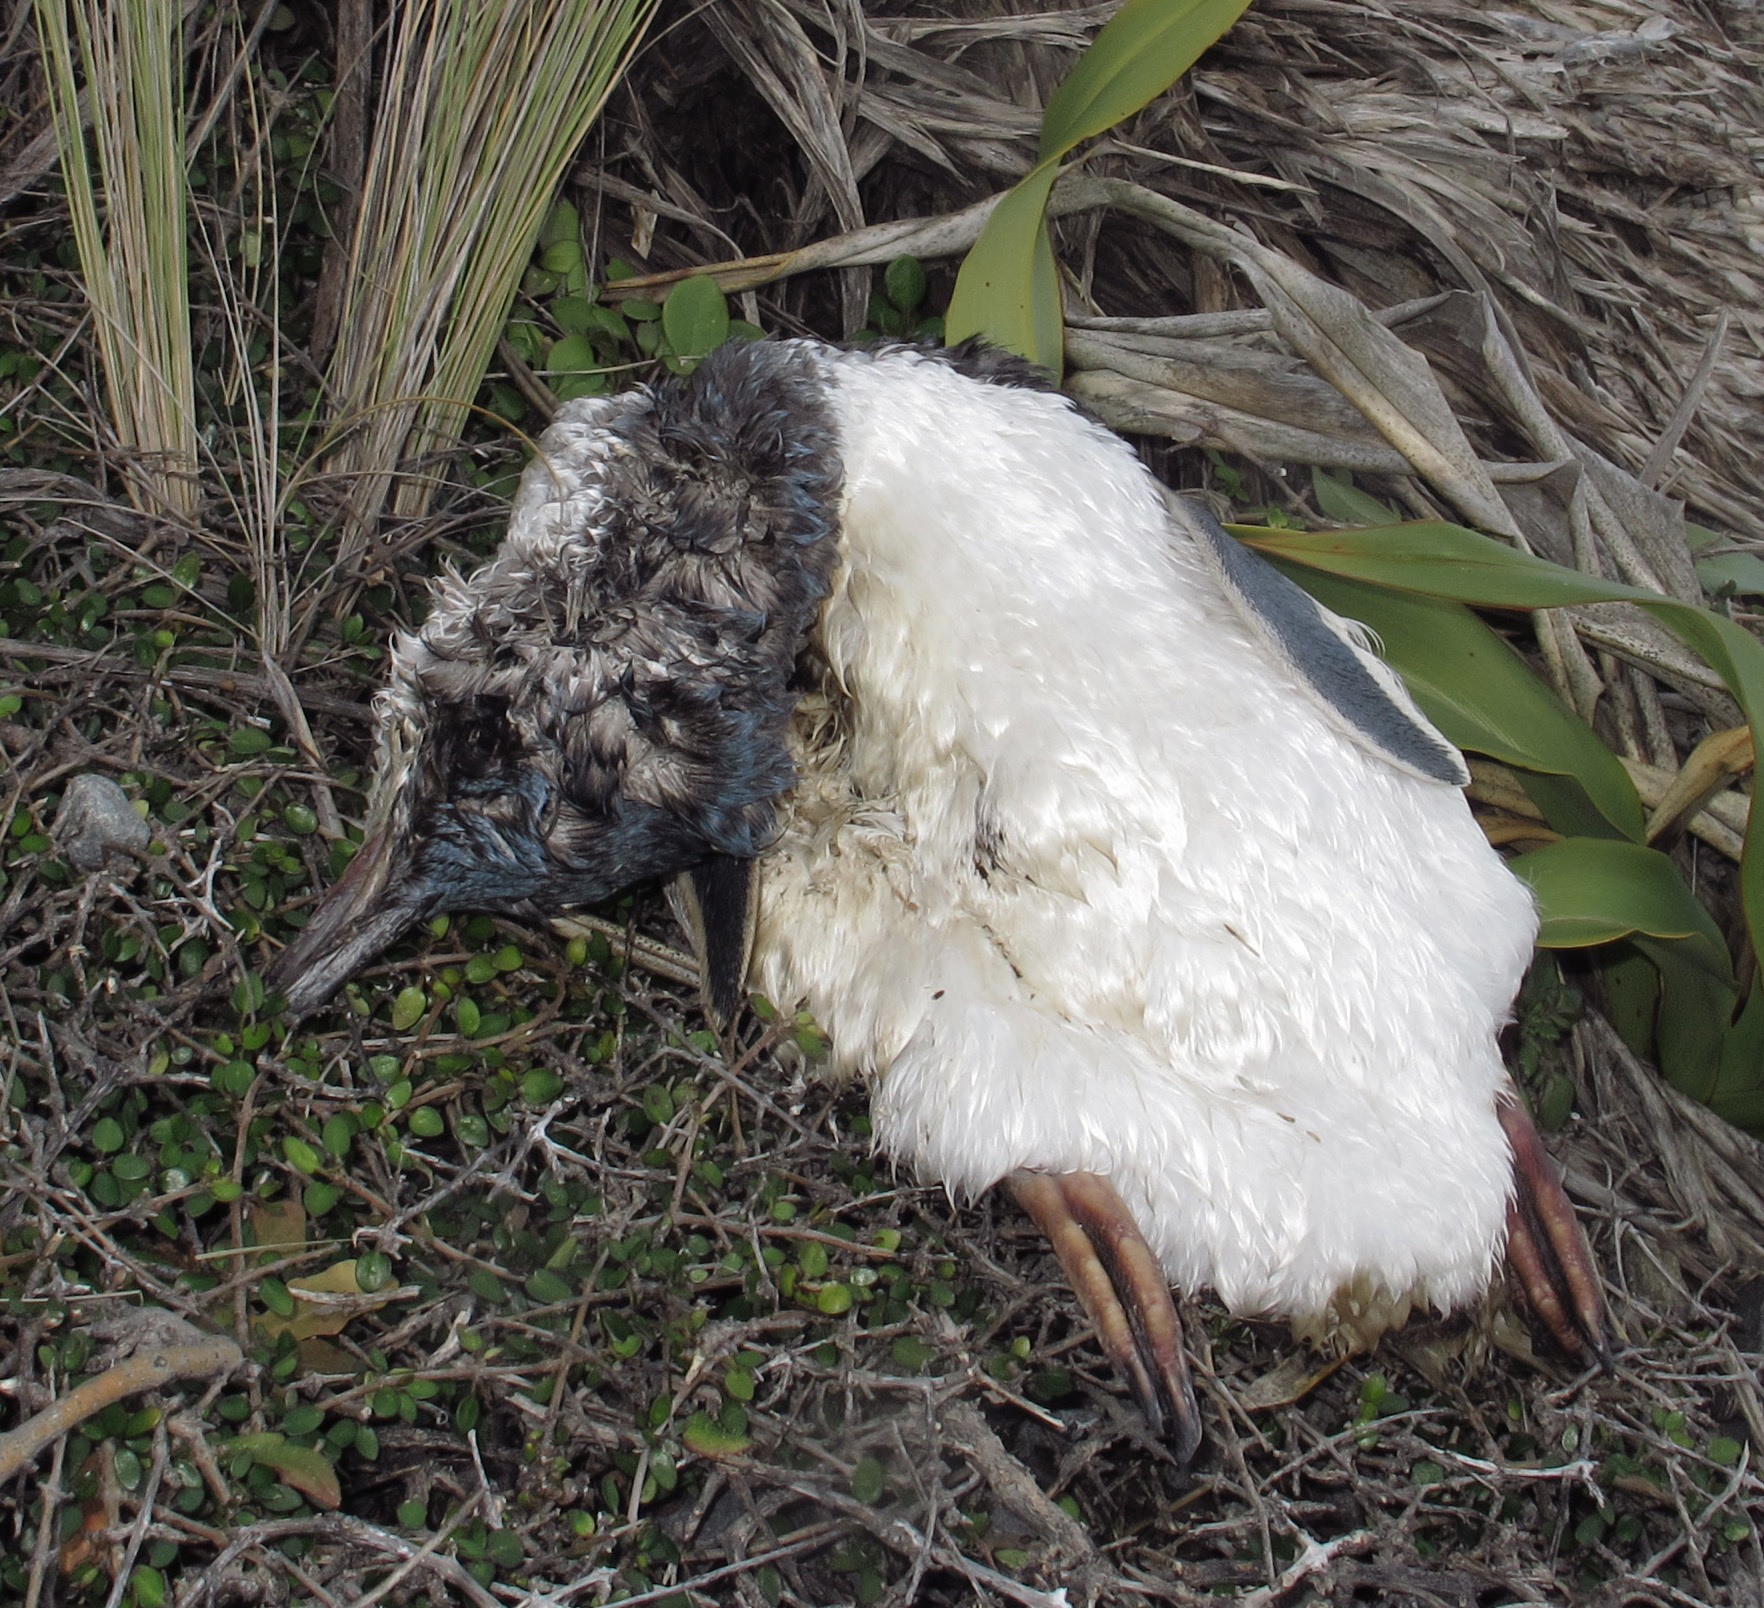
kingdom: Animalia
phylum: Chordata
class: Aves
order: Sphenisciformes
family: Spheniscidae
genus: Eudyptula
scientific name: Eudyptula minor
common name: Little penguin
